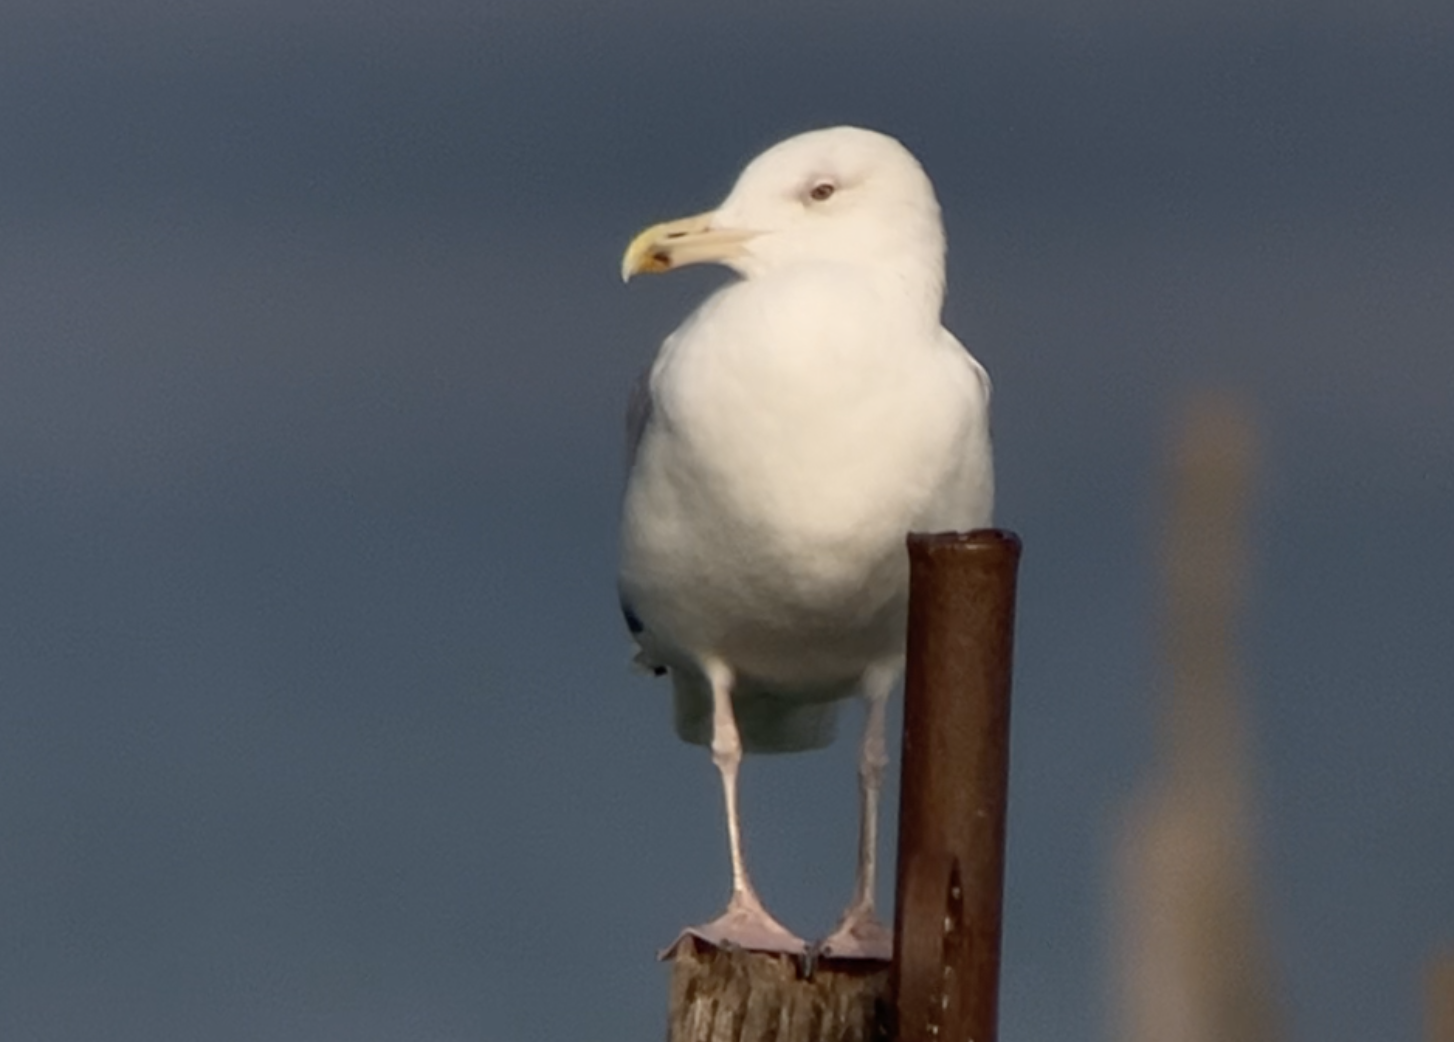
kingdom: Animalia
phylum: Chordata
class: Aves
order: Charadriiformes
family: Laridae
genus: Larus
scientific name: Larus cachinnans
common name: Caspian gull
